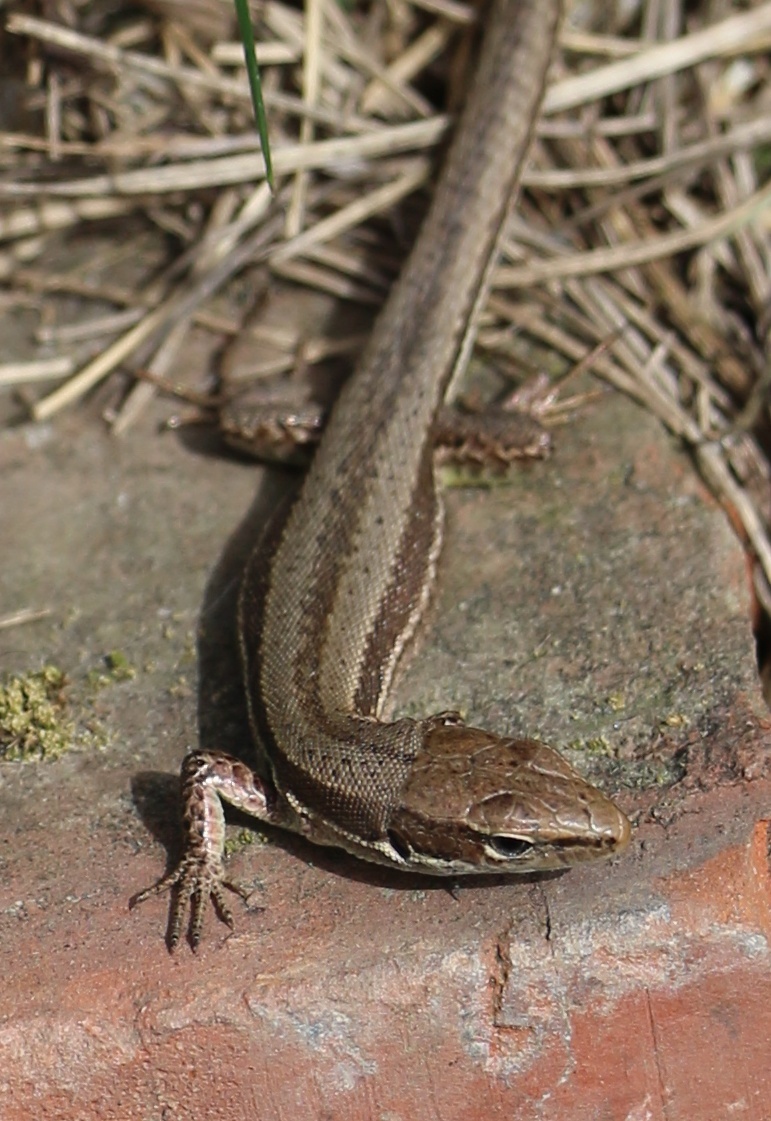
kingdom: Animalia
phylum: Chordata
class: Squamata
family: Lacertidae
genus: Darevskia
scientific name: Darevskia praticola
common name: Meadow lizard
